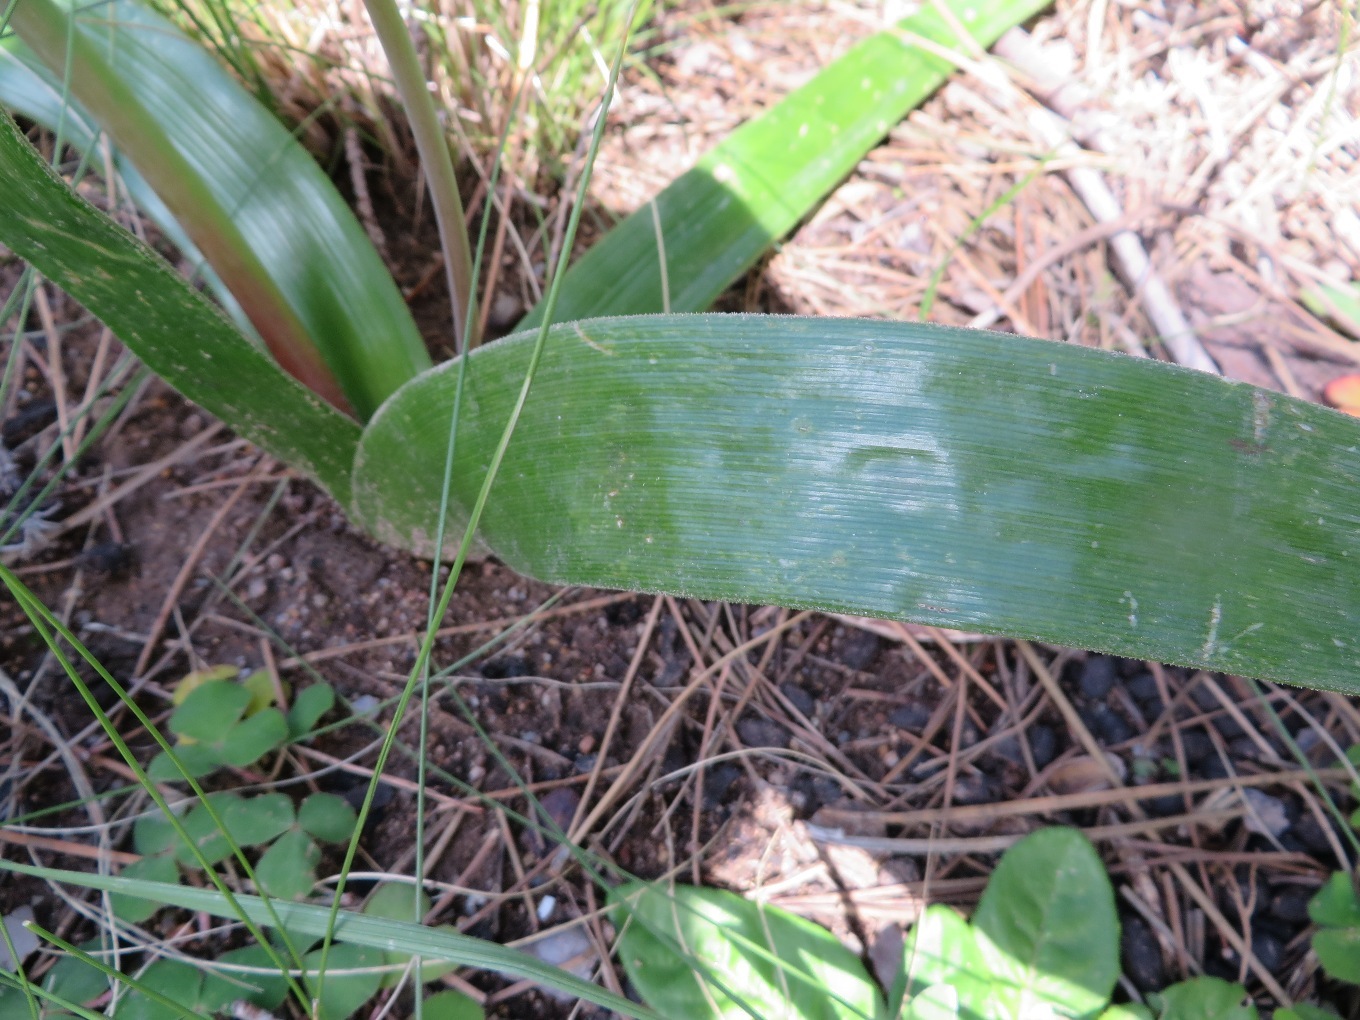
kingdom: Plantae
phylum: Tracheophyta
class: Liliopsida
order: Asparagales
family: Asphodelaceae
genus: Trachyandra
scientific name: Trachyandra muricata
